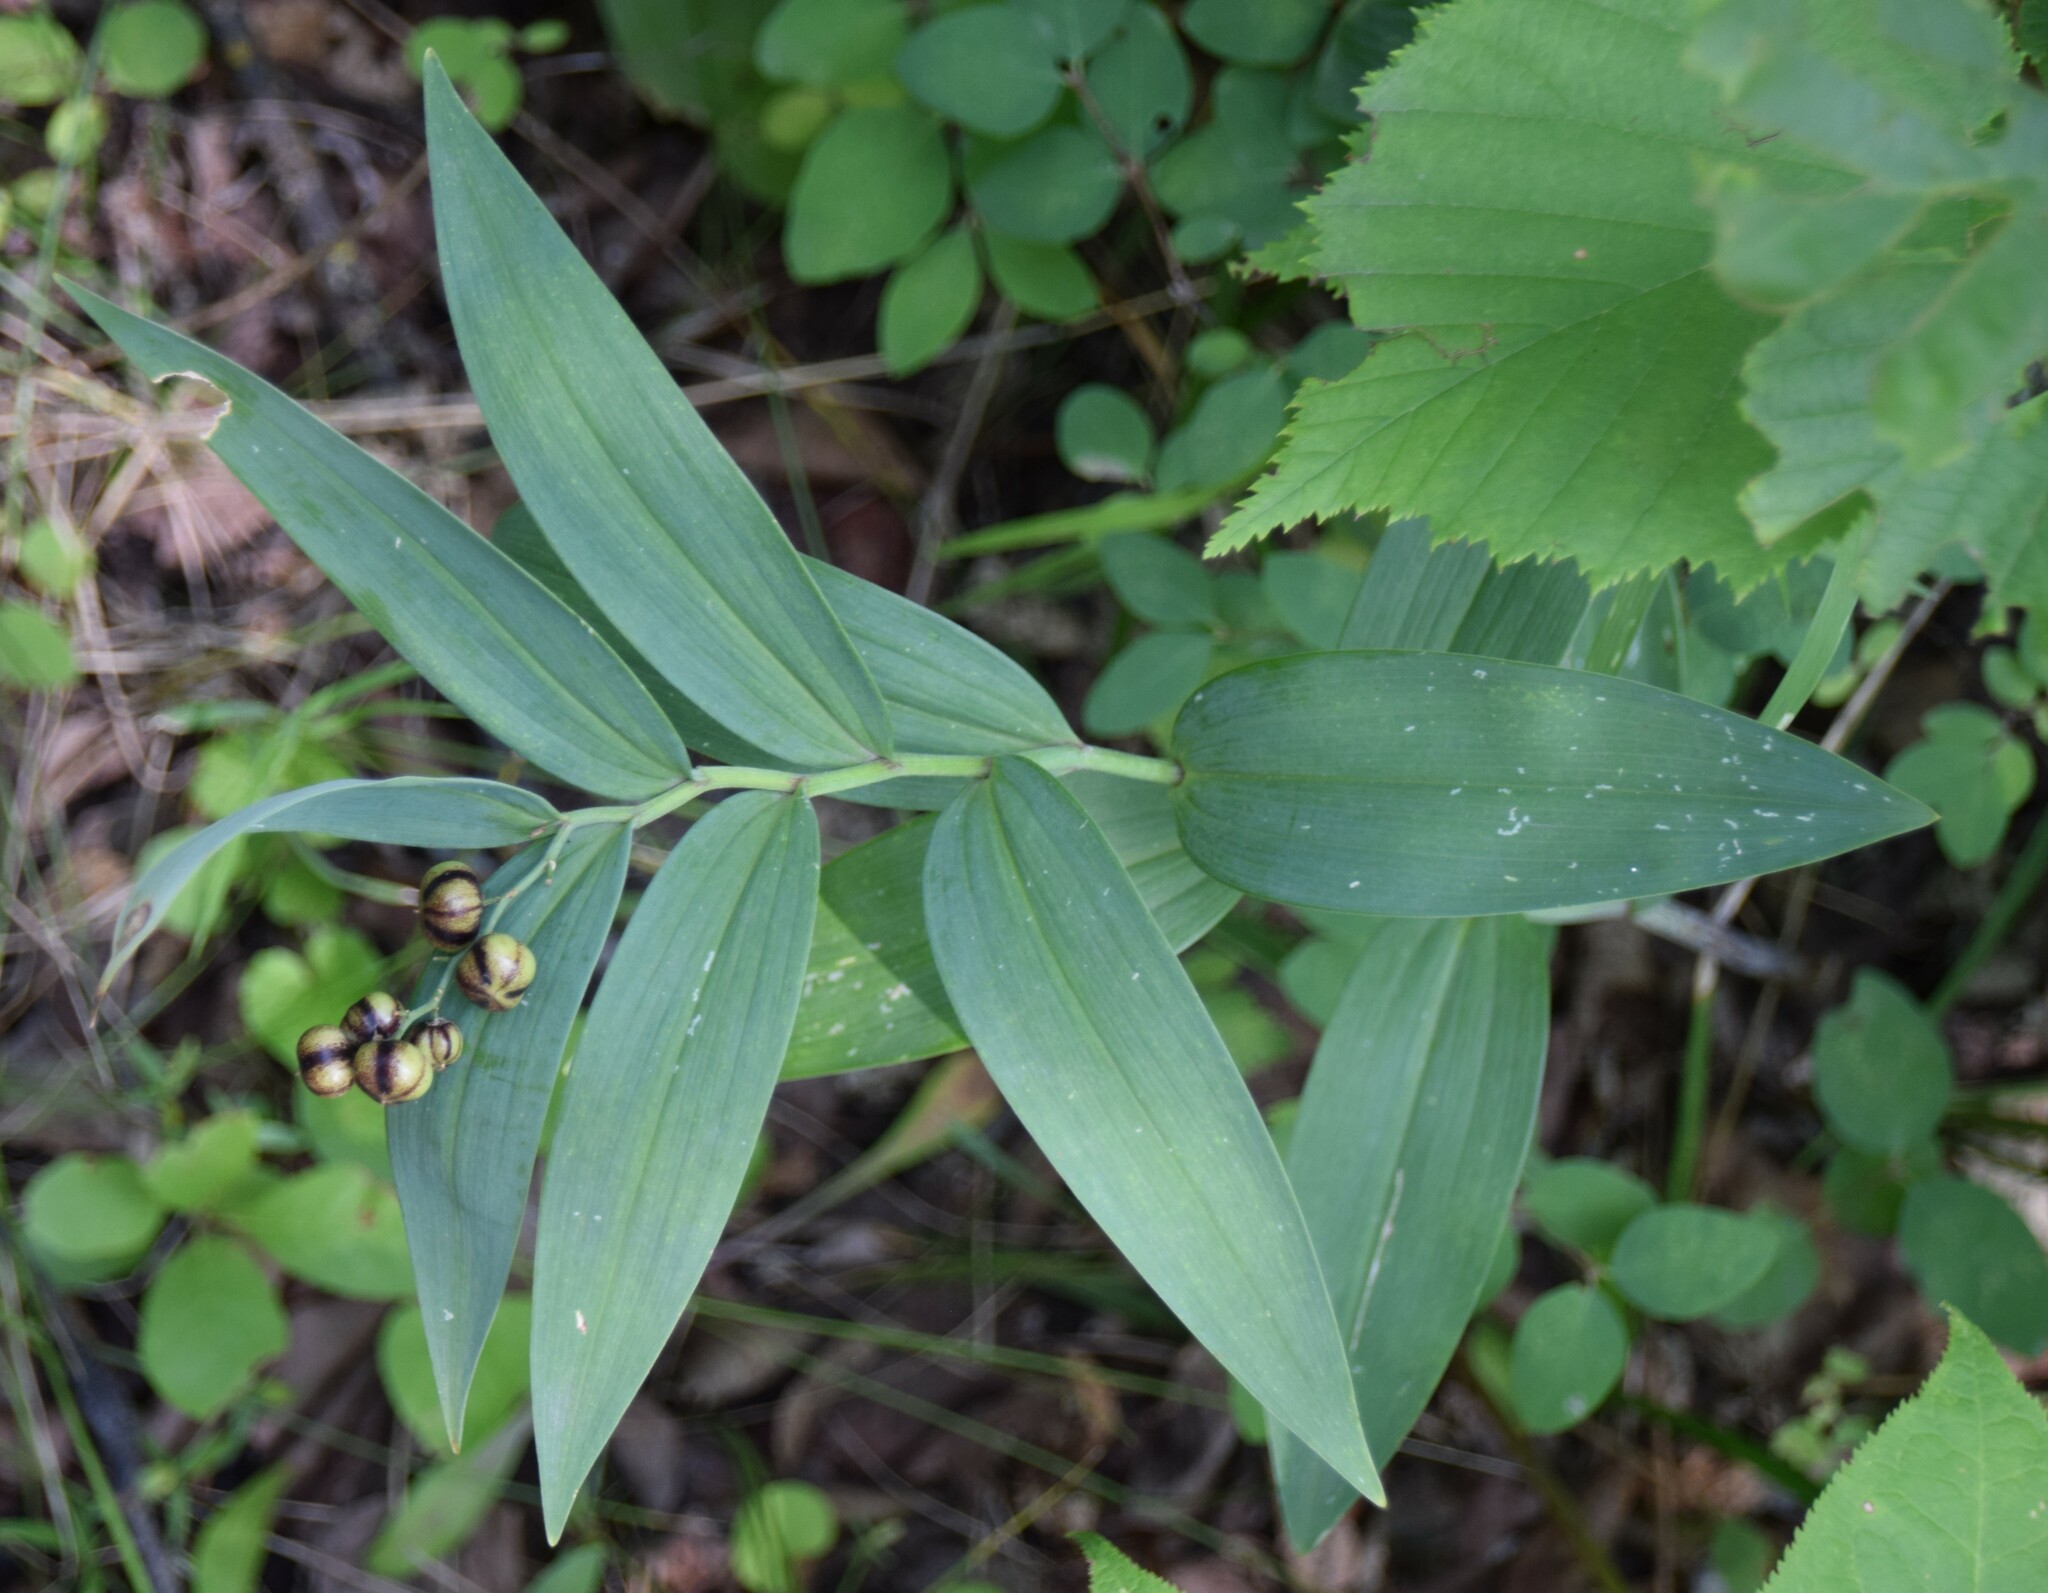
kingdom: Plantae
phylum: Tracheophyta
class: Liliopsida
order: Asparagales
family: Asparagaceae
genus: Maianthemum
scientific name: Maianthemum stellatum
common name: Little false solomon's seal
